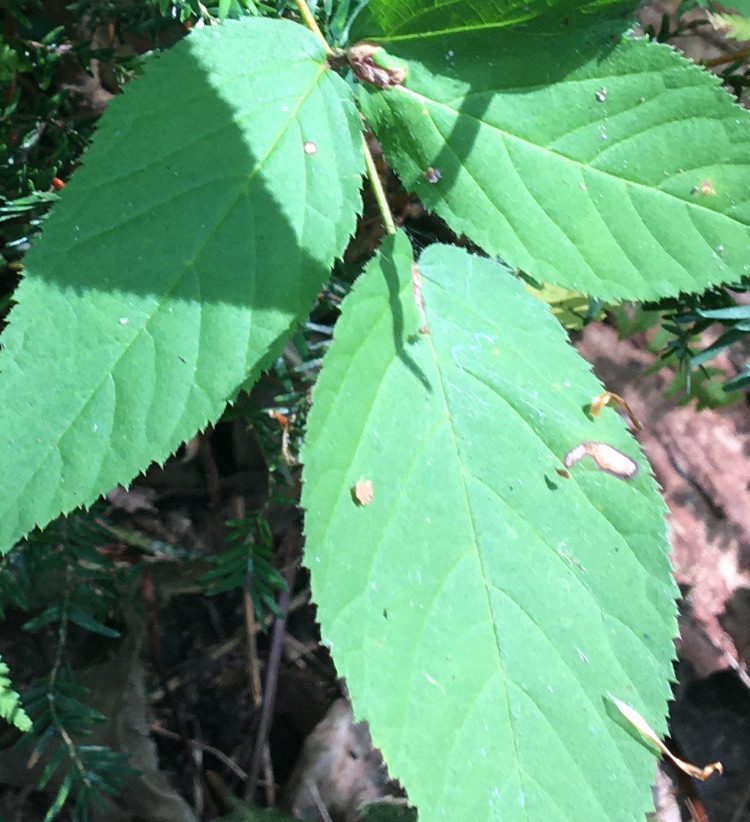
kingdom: Animalia
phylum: Arthropoda
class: Insecta
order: Hymenoptera
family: Tenthredinidae
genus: Metallus
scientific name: Metallus rohweri
